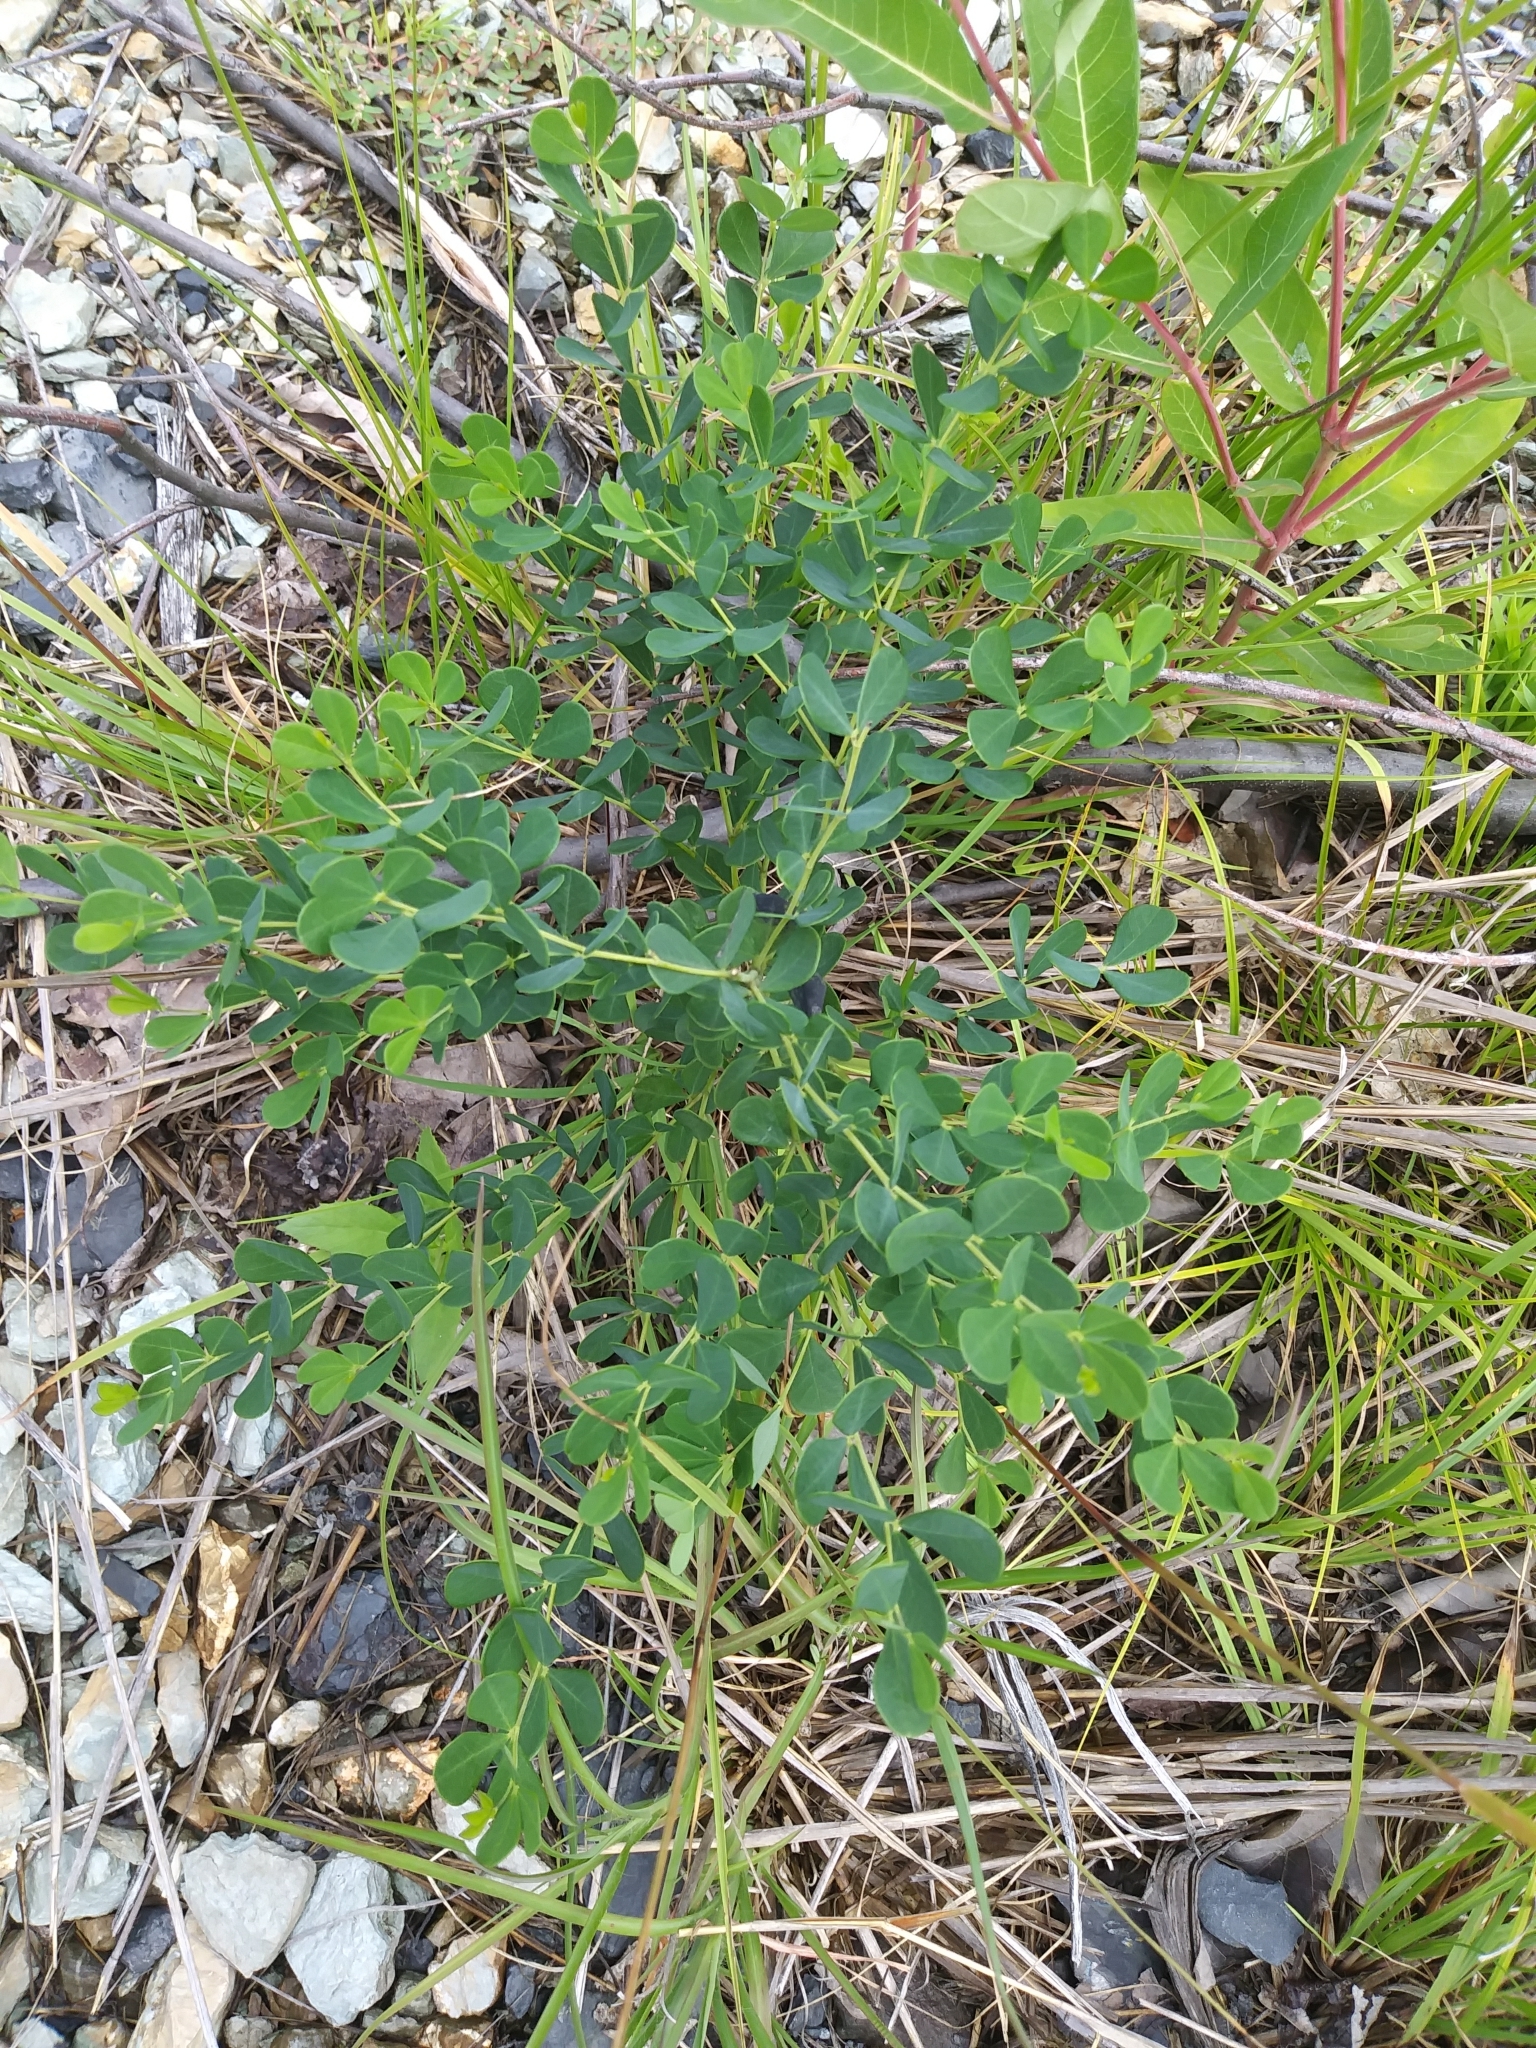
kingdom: Plantae
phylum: Tracheophyta
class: Magnoliopsida
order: Fabales
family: Fabaceae
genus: Baptisia
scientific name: Baptisia tinctoria
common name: Wild indigo
